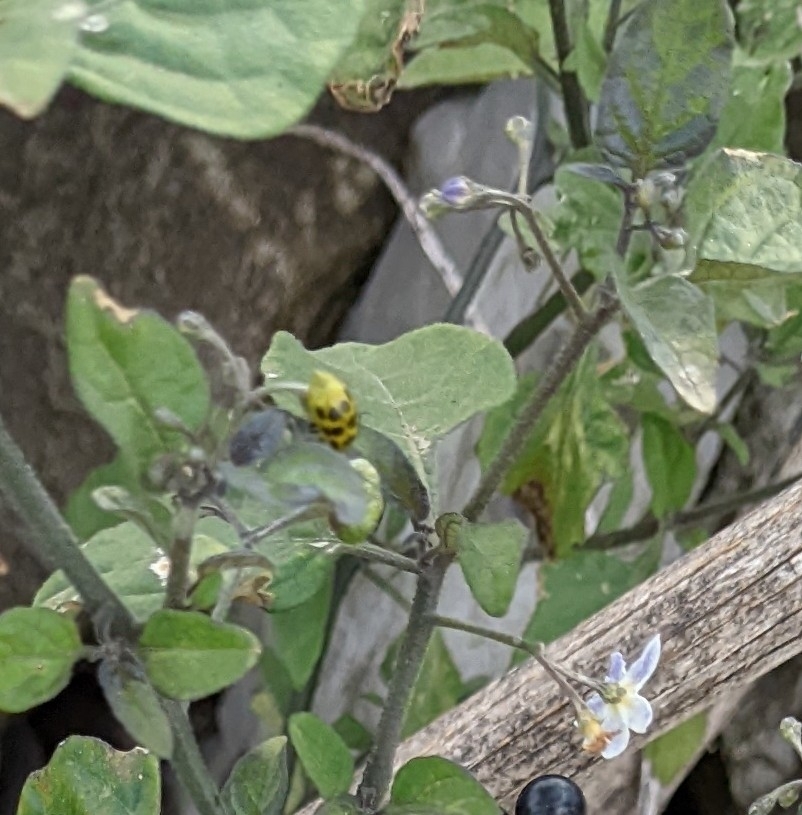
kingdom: Animalia
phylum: Arthropoda
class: Insecta
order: Coleoptera
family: Chrysomelidae
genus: Diabrotica
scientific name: Diabrotica undecimpunctata
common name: Spotted cucumber beetle
